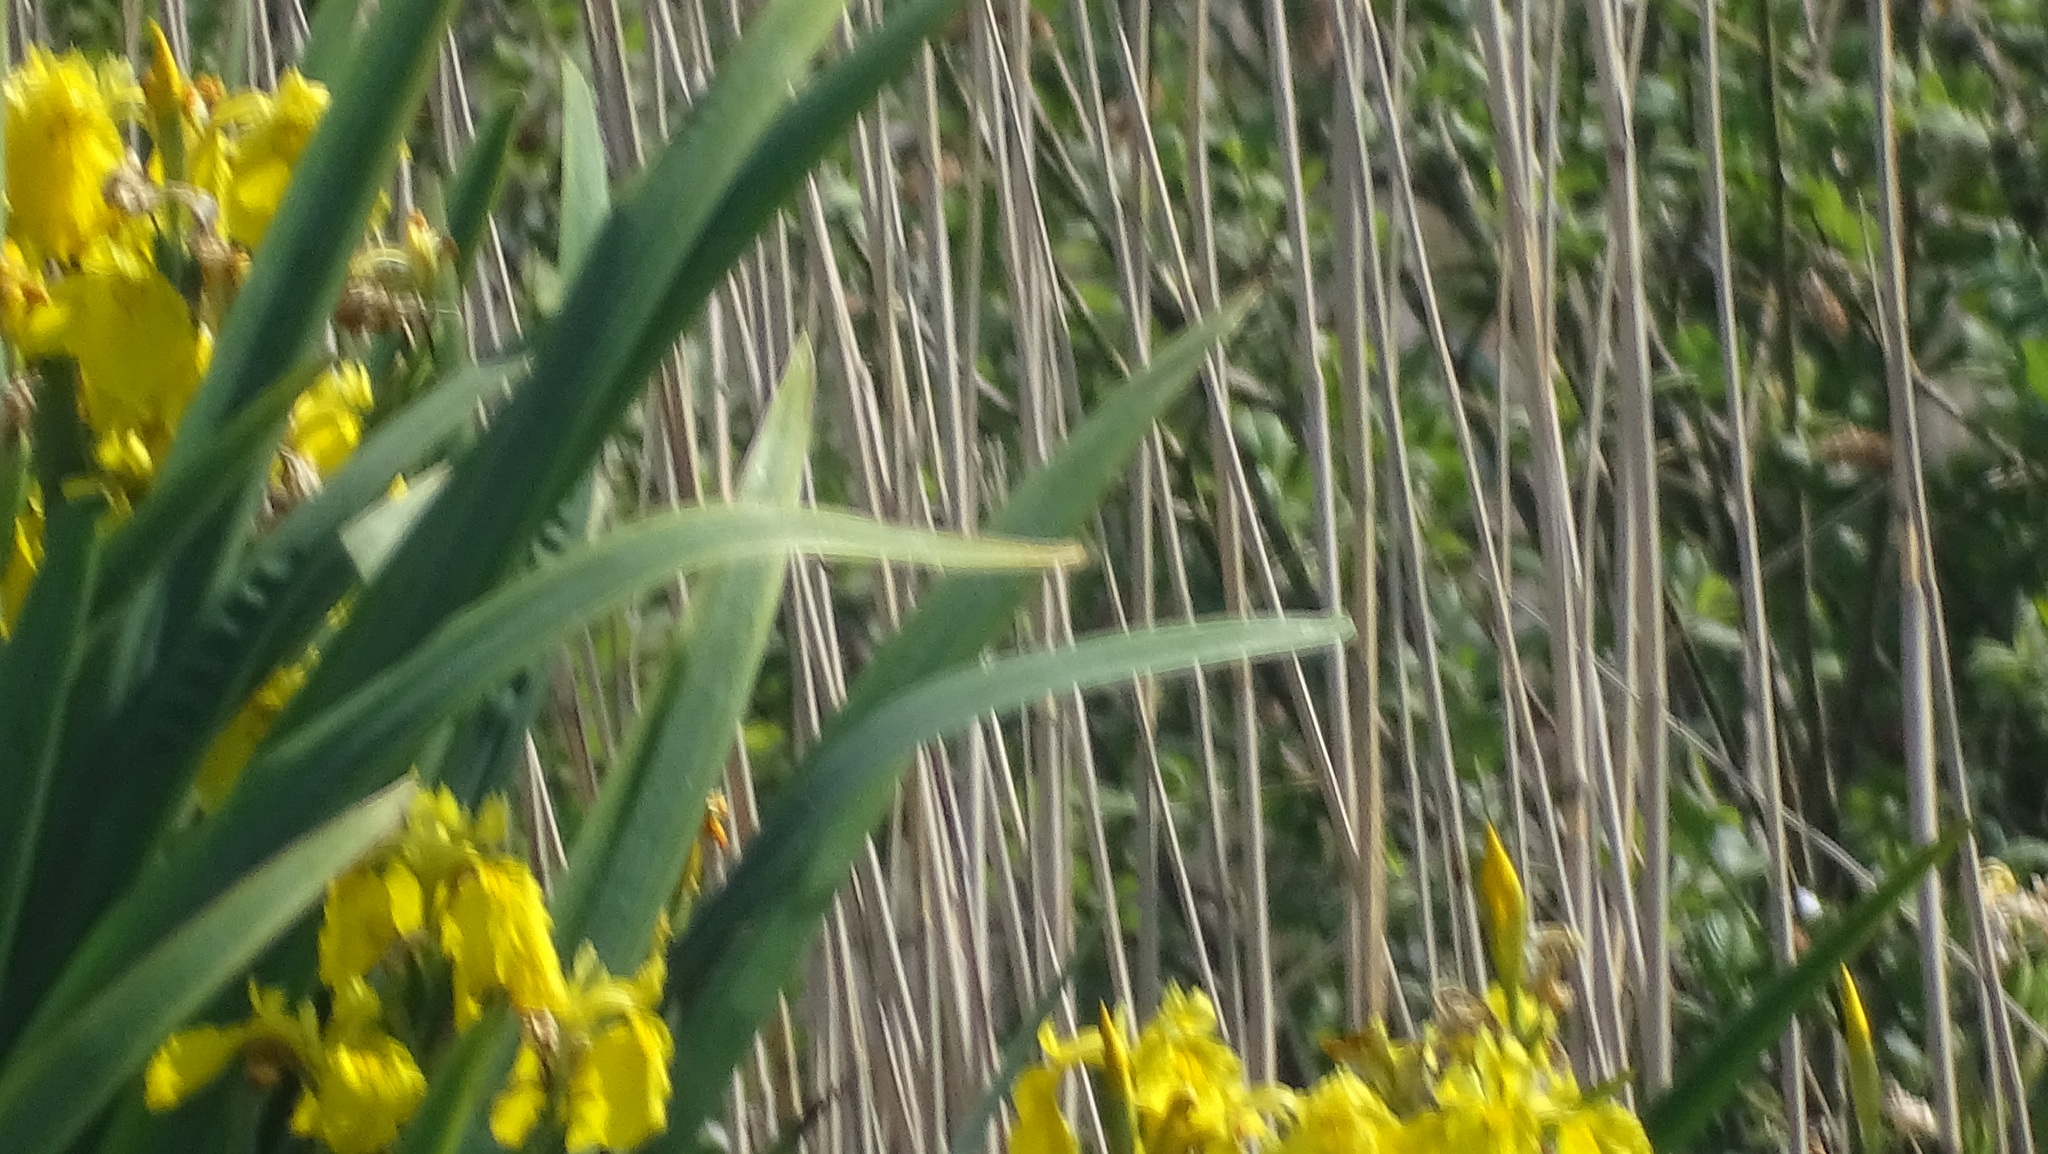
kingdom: Plantae
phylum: Tracheophyta
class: Liliopsida
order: Asparagales
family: Iridaceae
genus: Iris
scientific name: Iris pseudacorus
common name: Yellow flag
